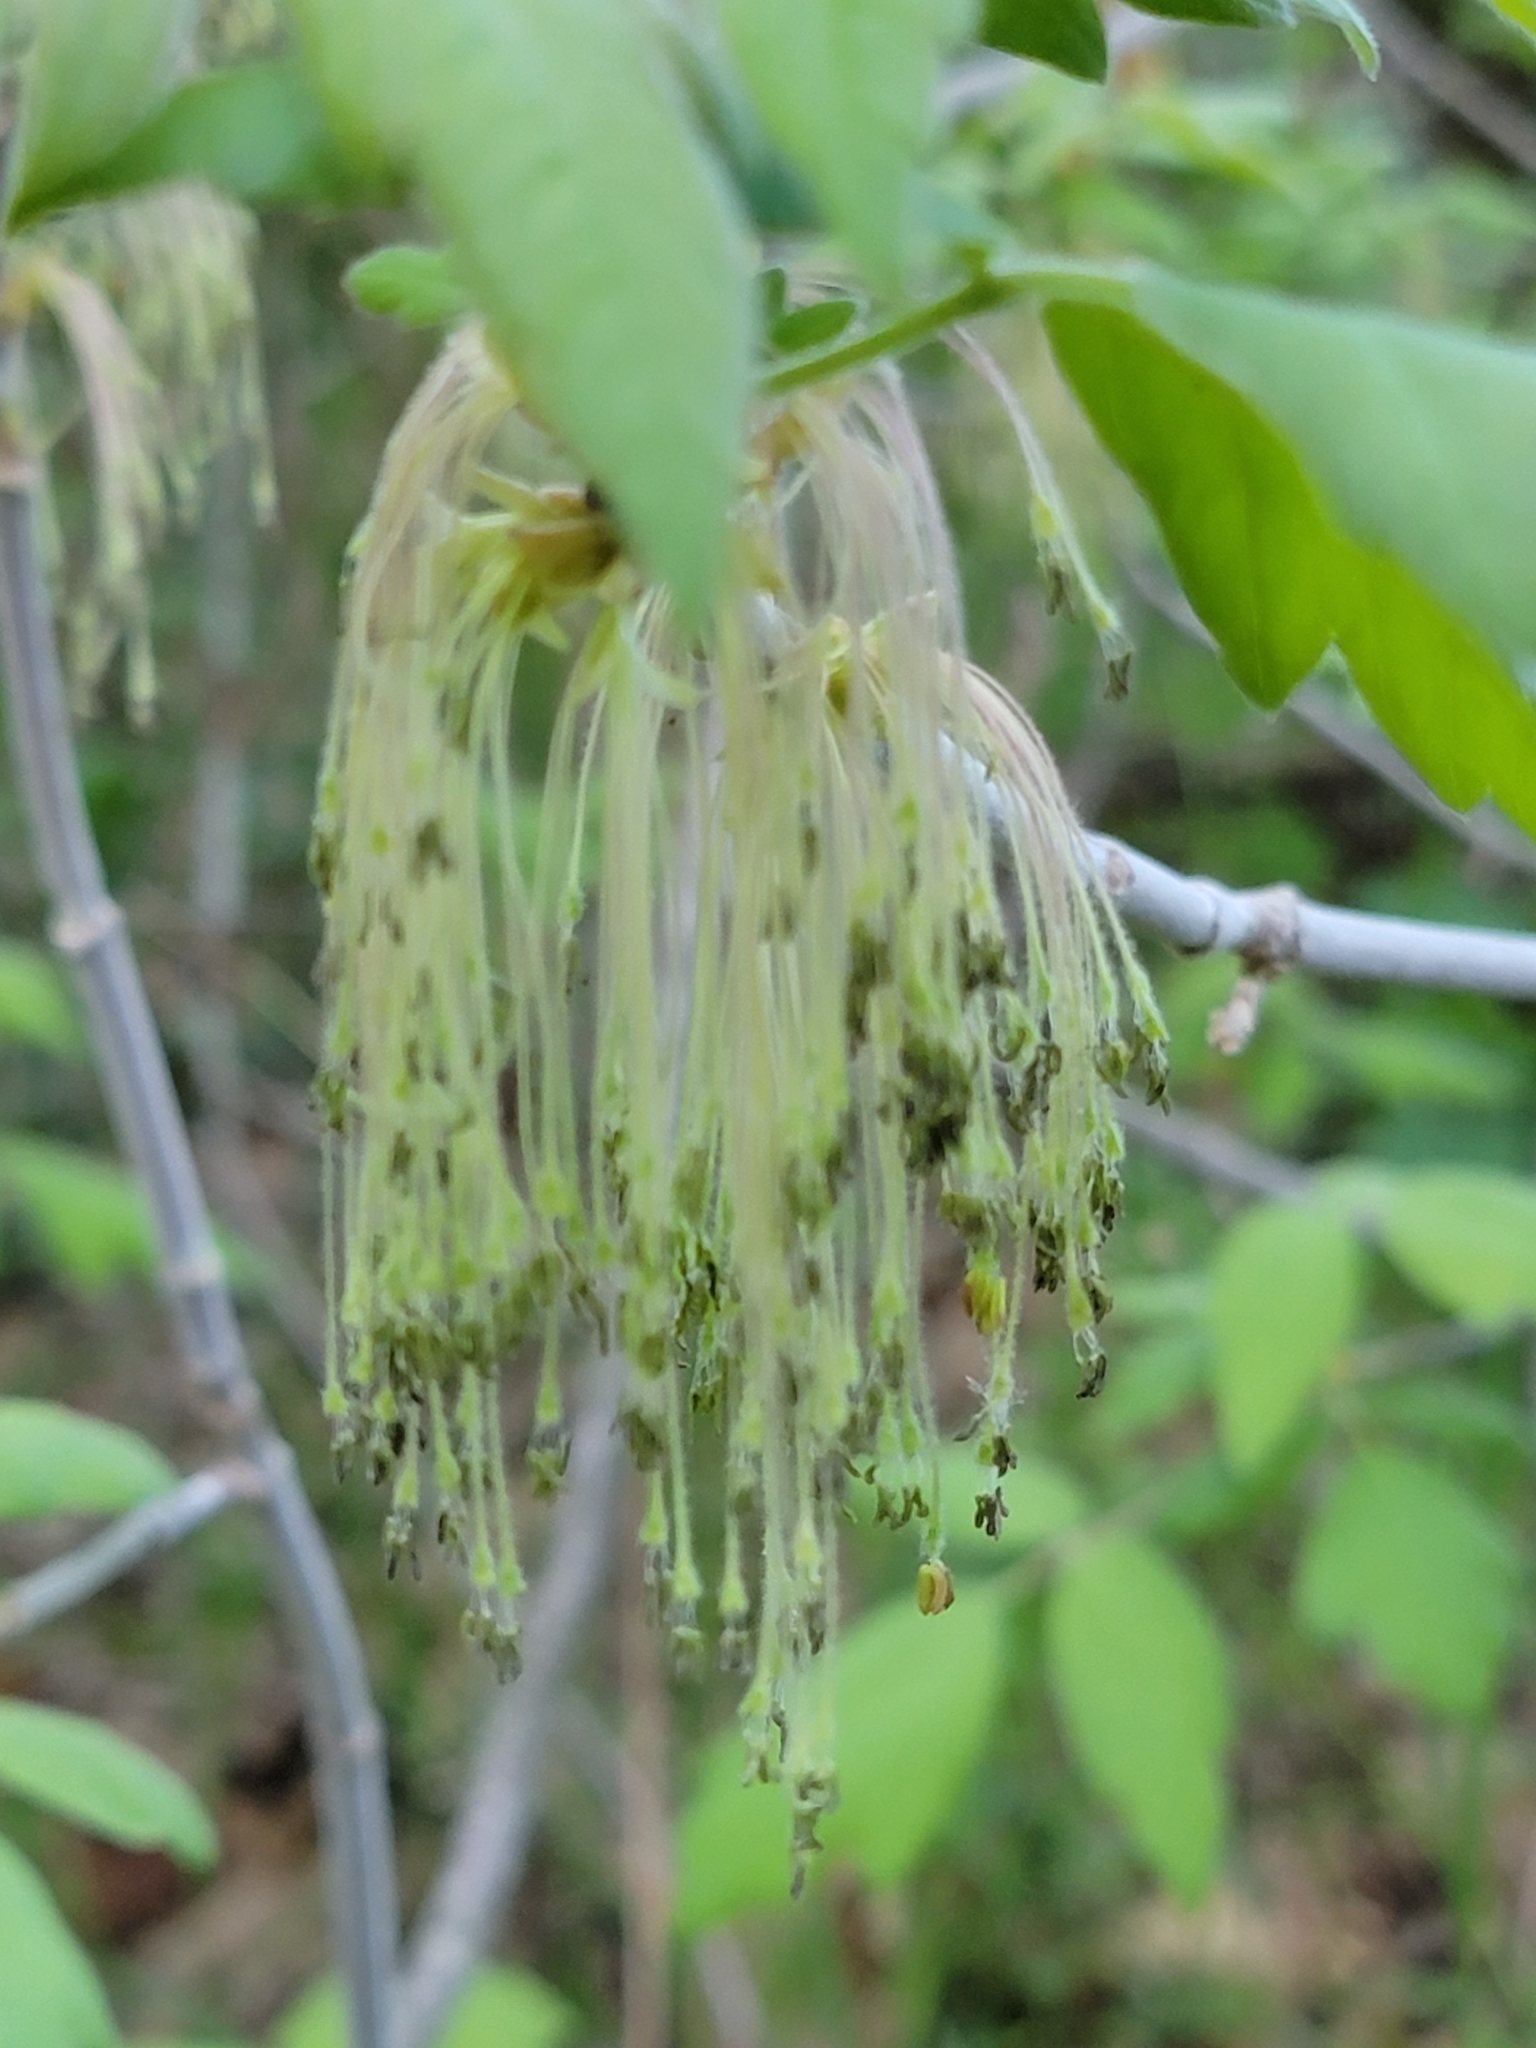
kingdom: Plantae
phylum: Tracheophyta
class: Magnoliopsida
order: Sapindales
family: Sapindaceae
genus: Acer
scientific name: Acer negundo
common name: Ashleaf maple
